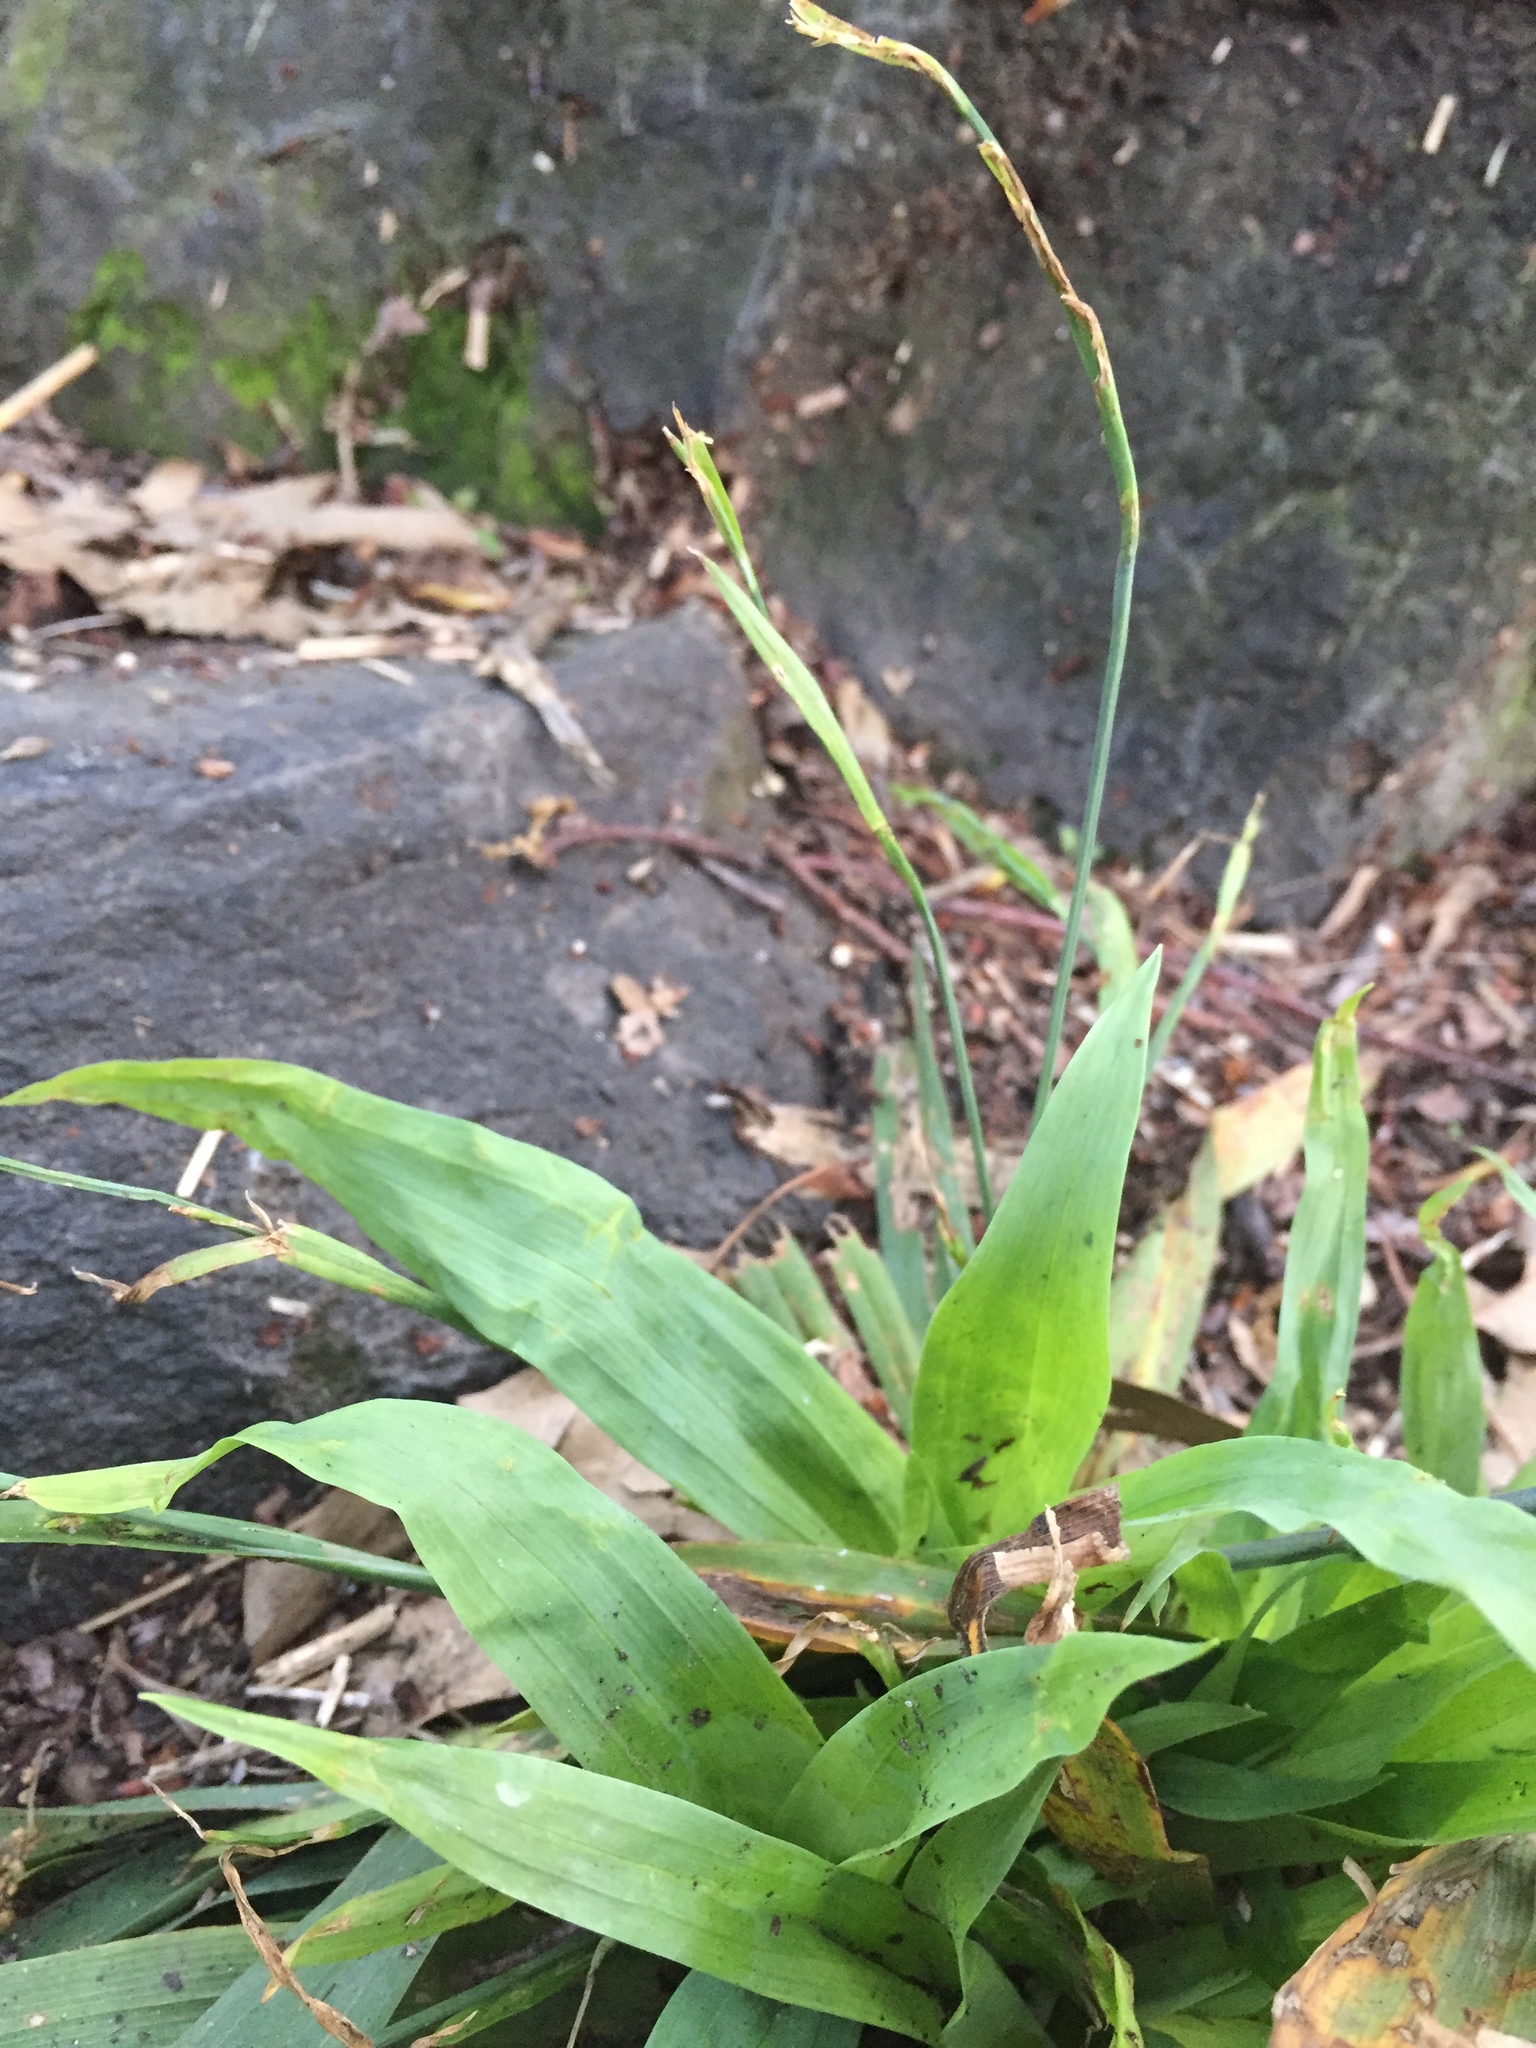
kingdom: Plantae
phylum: Tracheophyta
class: Liliopsida
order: Poales
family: Cyperaceae
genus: Carex
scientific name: Carex platyphylla
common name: Broad-leaved sedge
